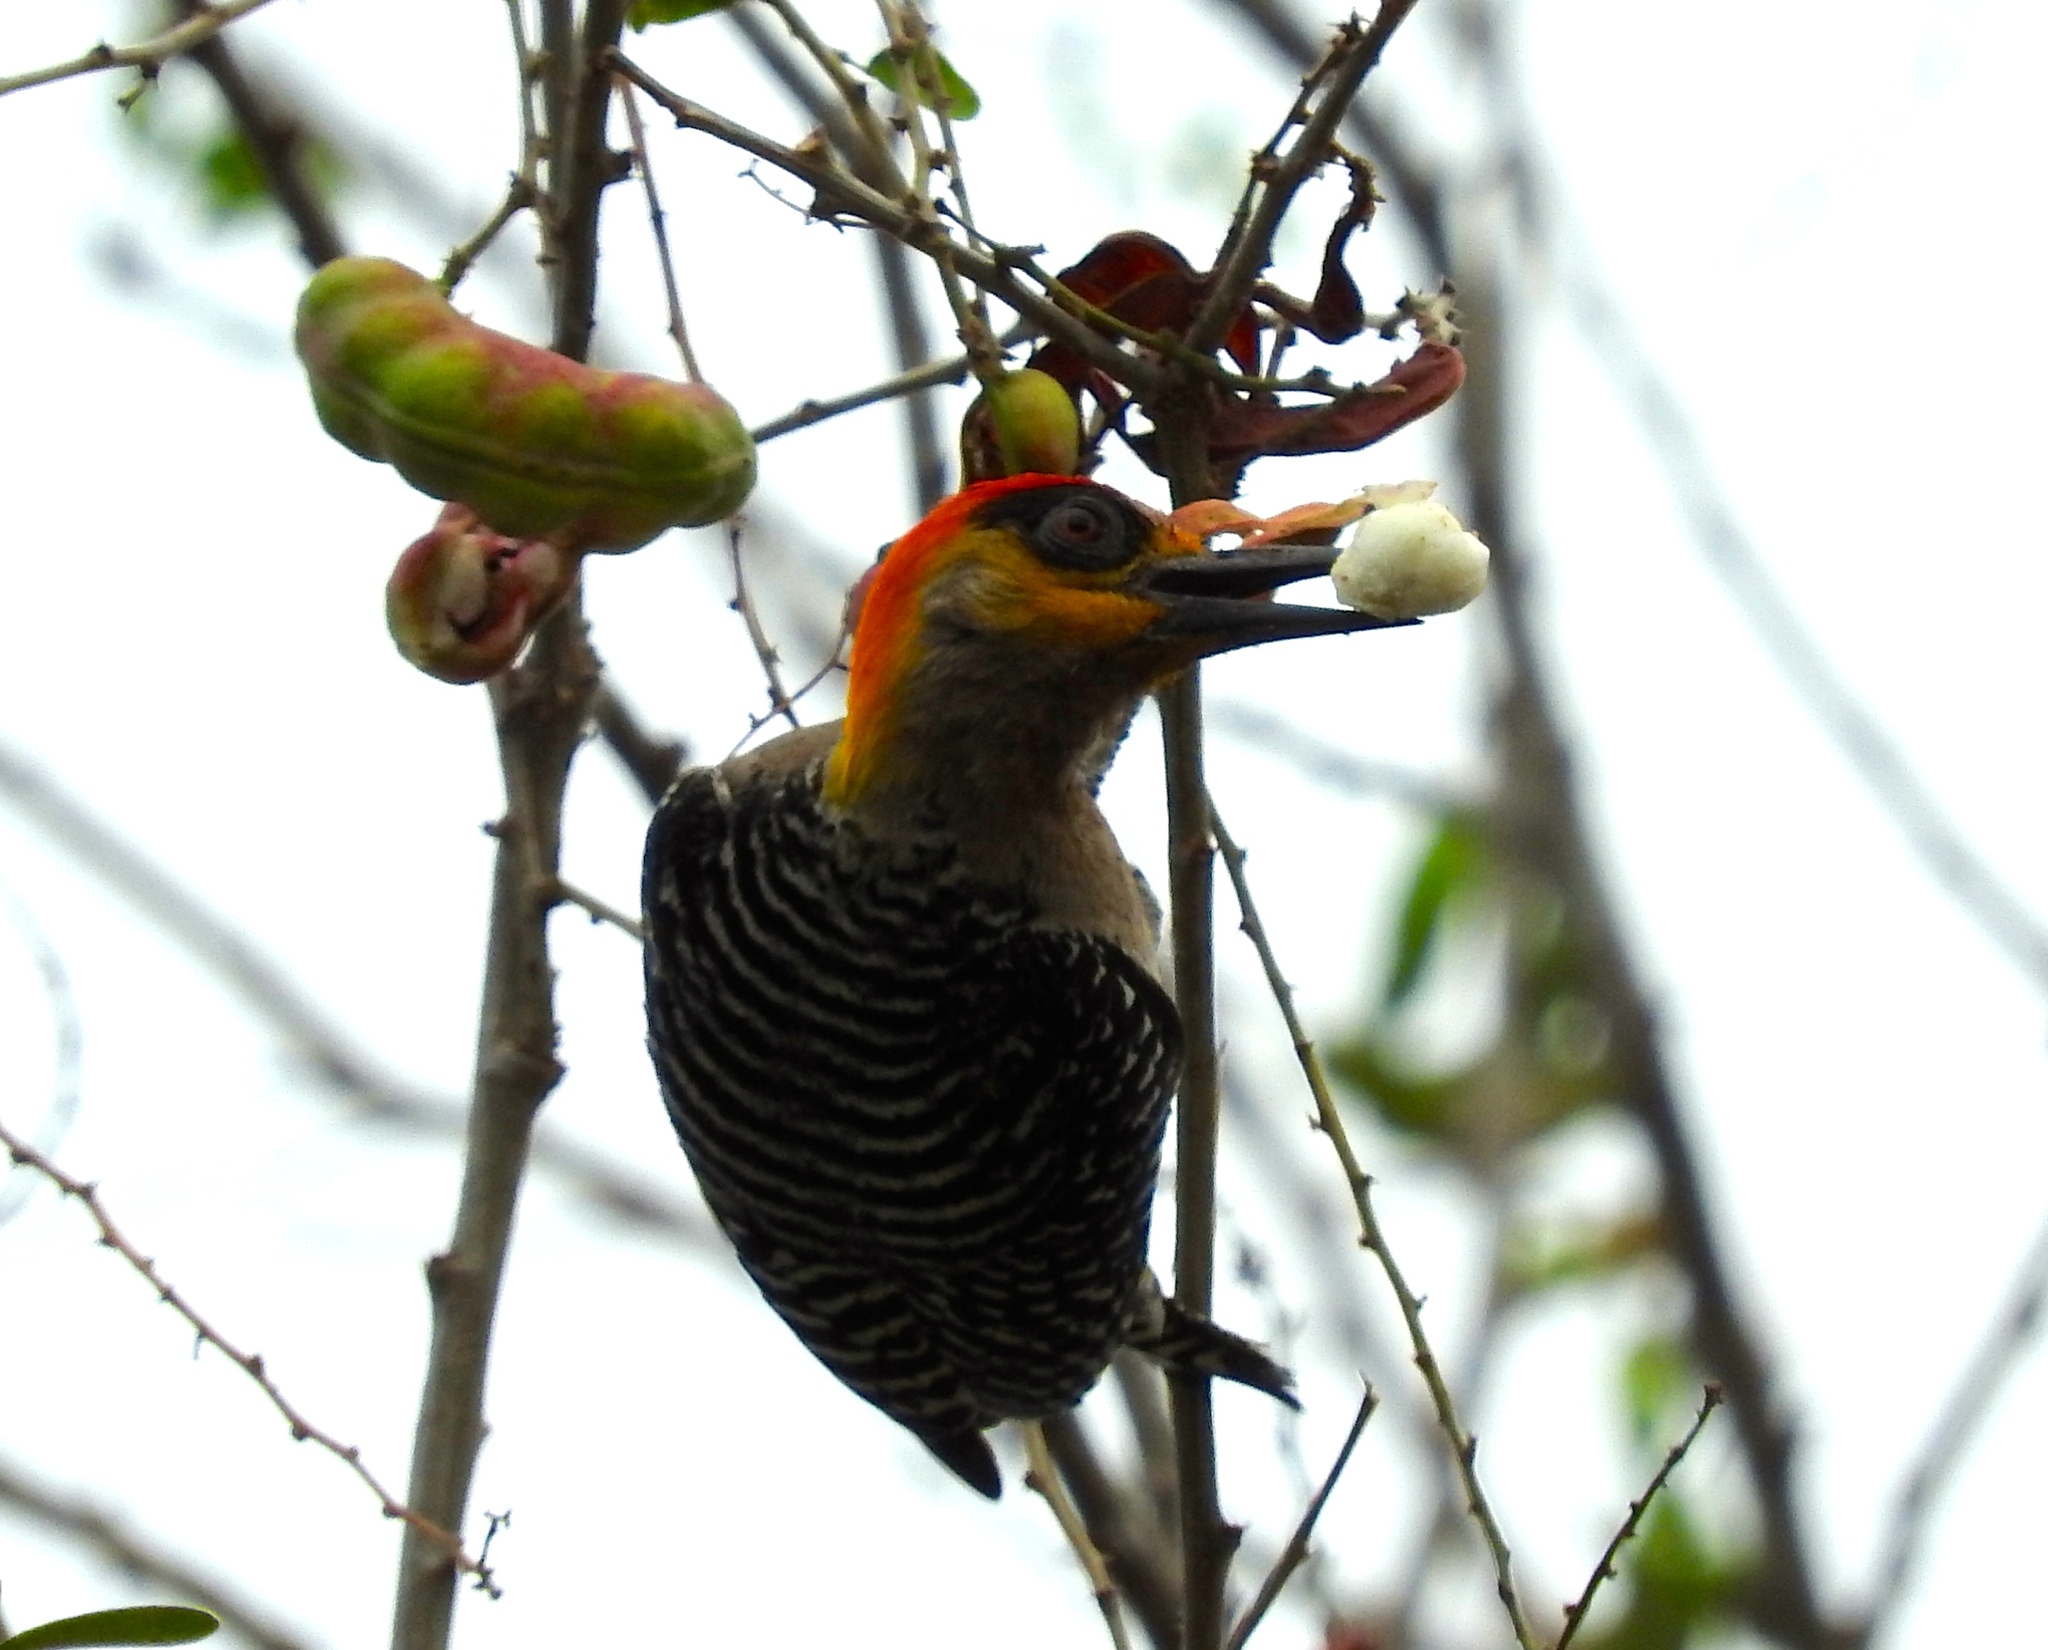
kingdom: Animalia
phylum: Chordata
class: Aves
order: Piciformes
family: Picidae
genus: Melanerpes
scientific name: Melanerpes chrysogenys
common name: Golden-cheeked woodpecker
